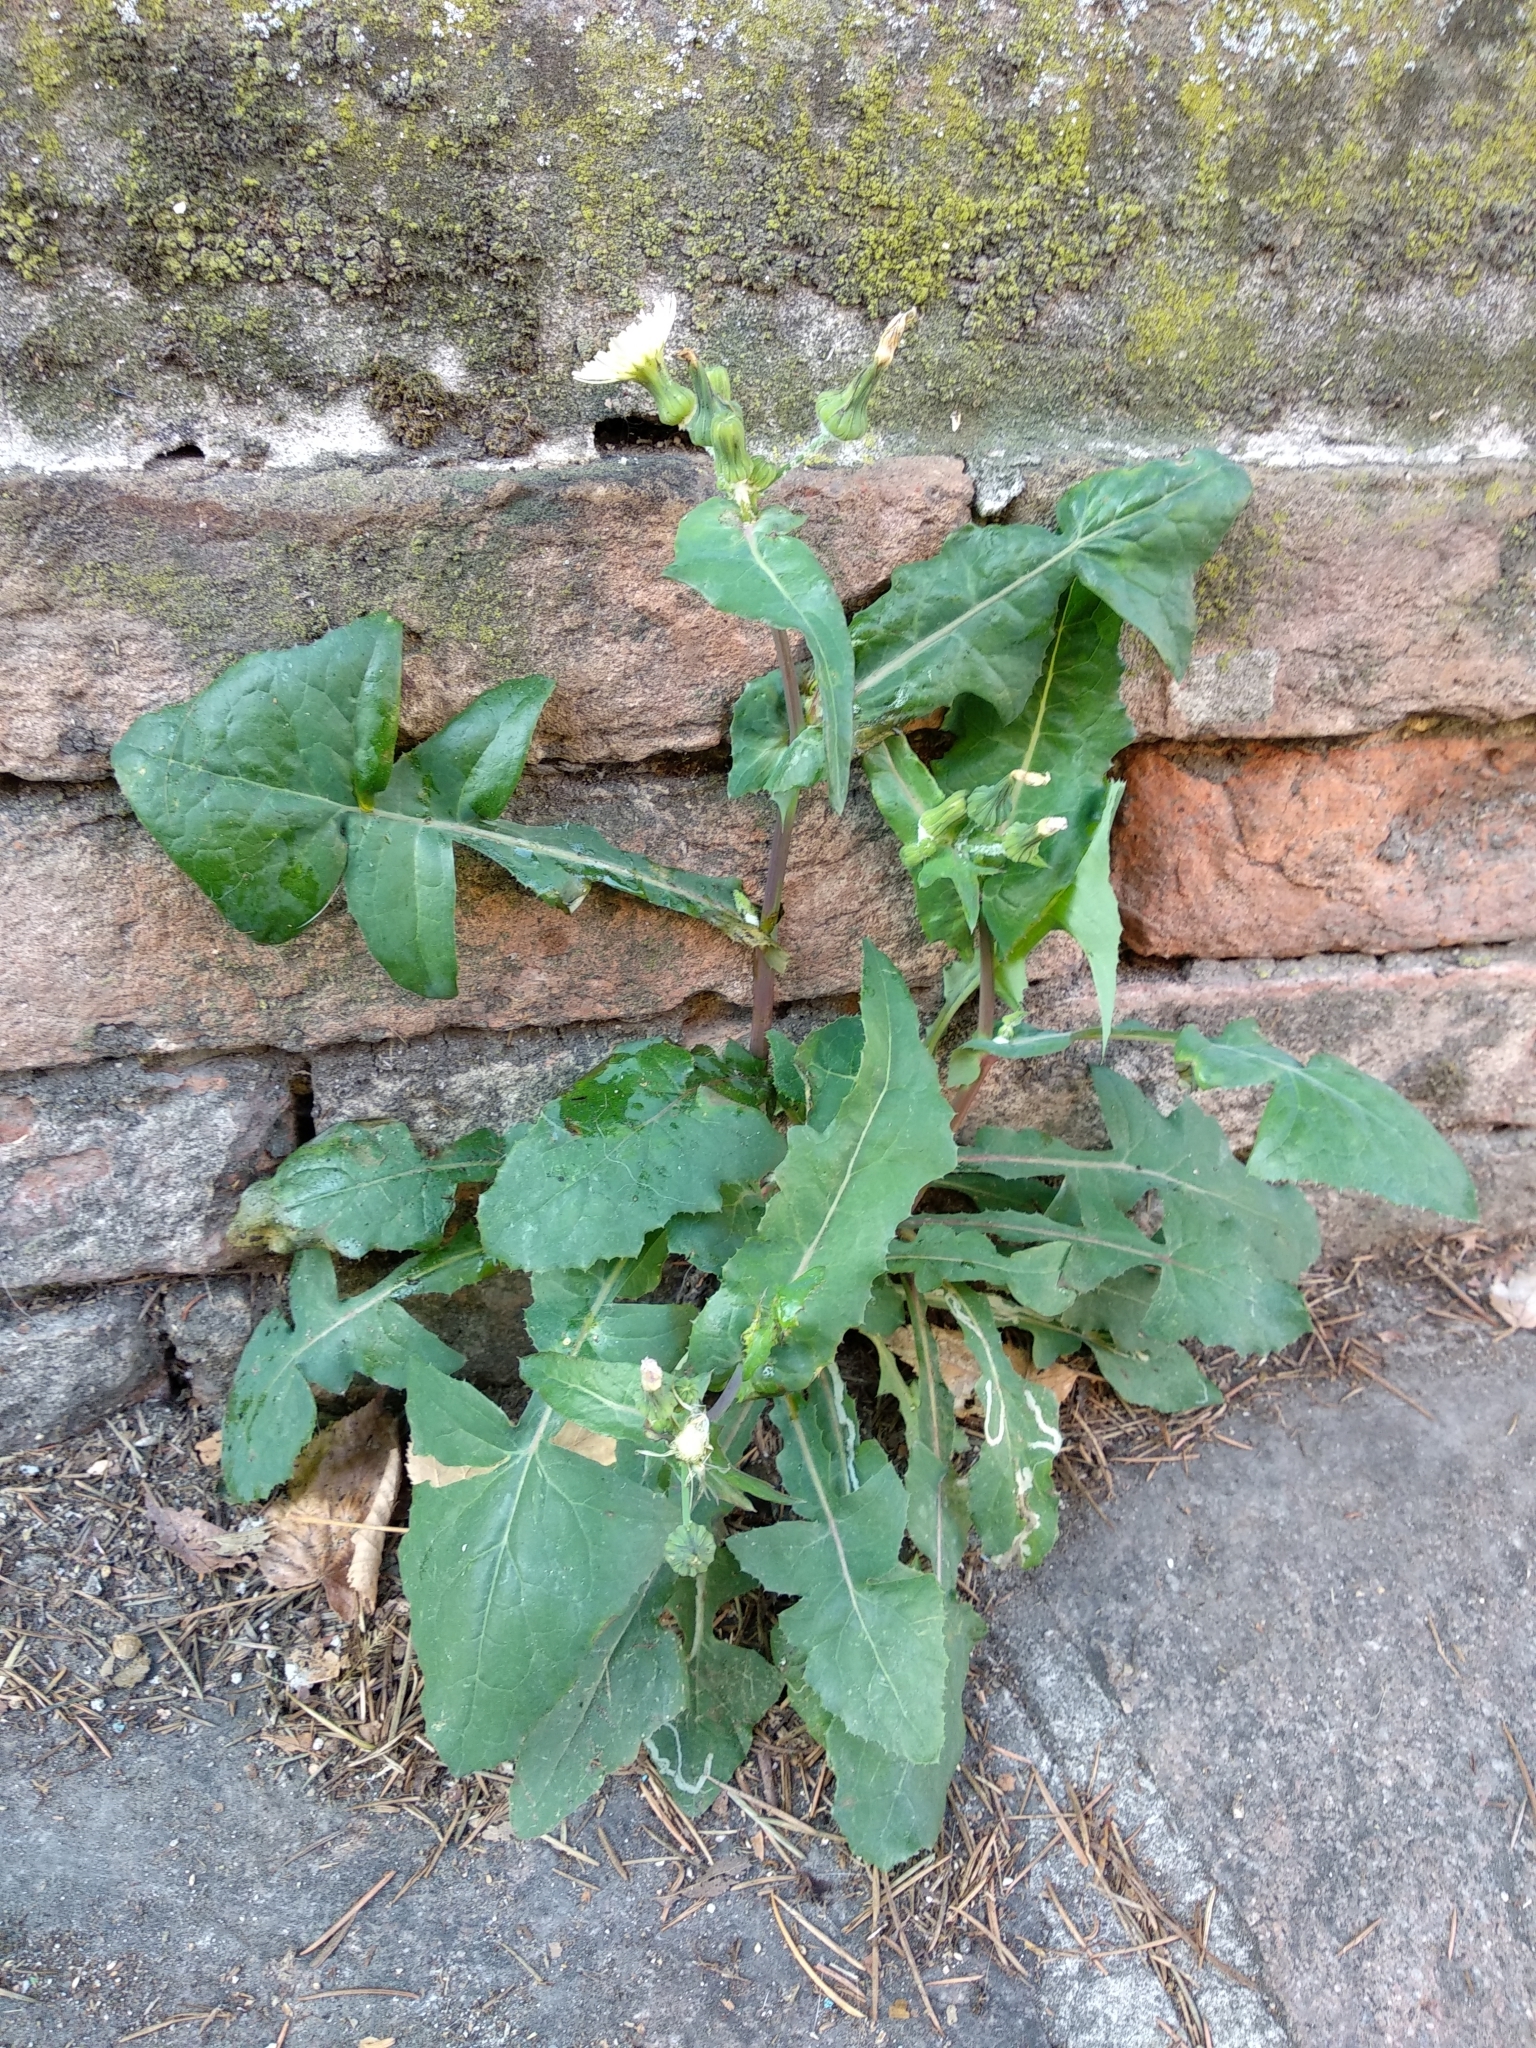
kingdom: Plantae
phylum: Tracheophyta
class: Magnoliopsida
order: Asterales
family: Asteraceae
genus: Sonchus
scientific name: Sonchus oleraceus
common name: Common sowthistle
